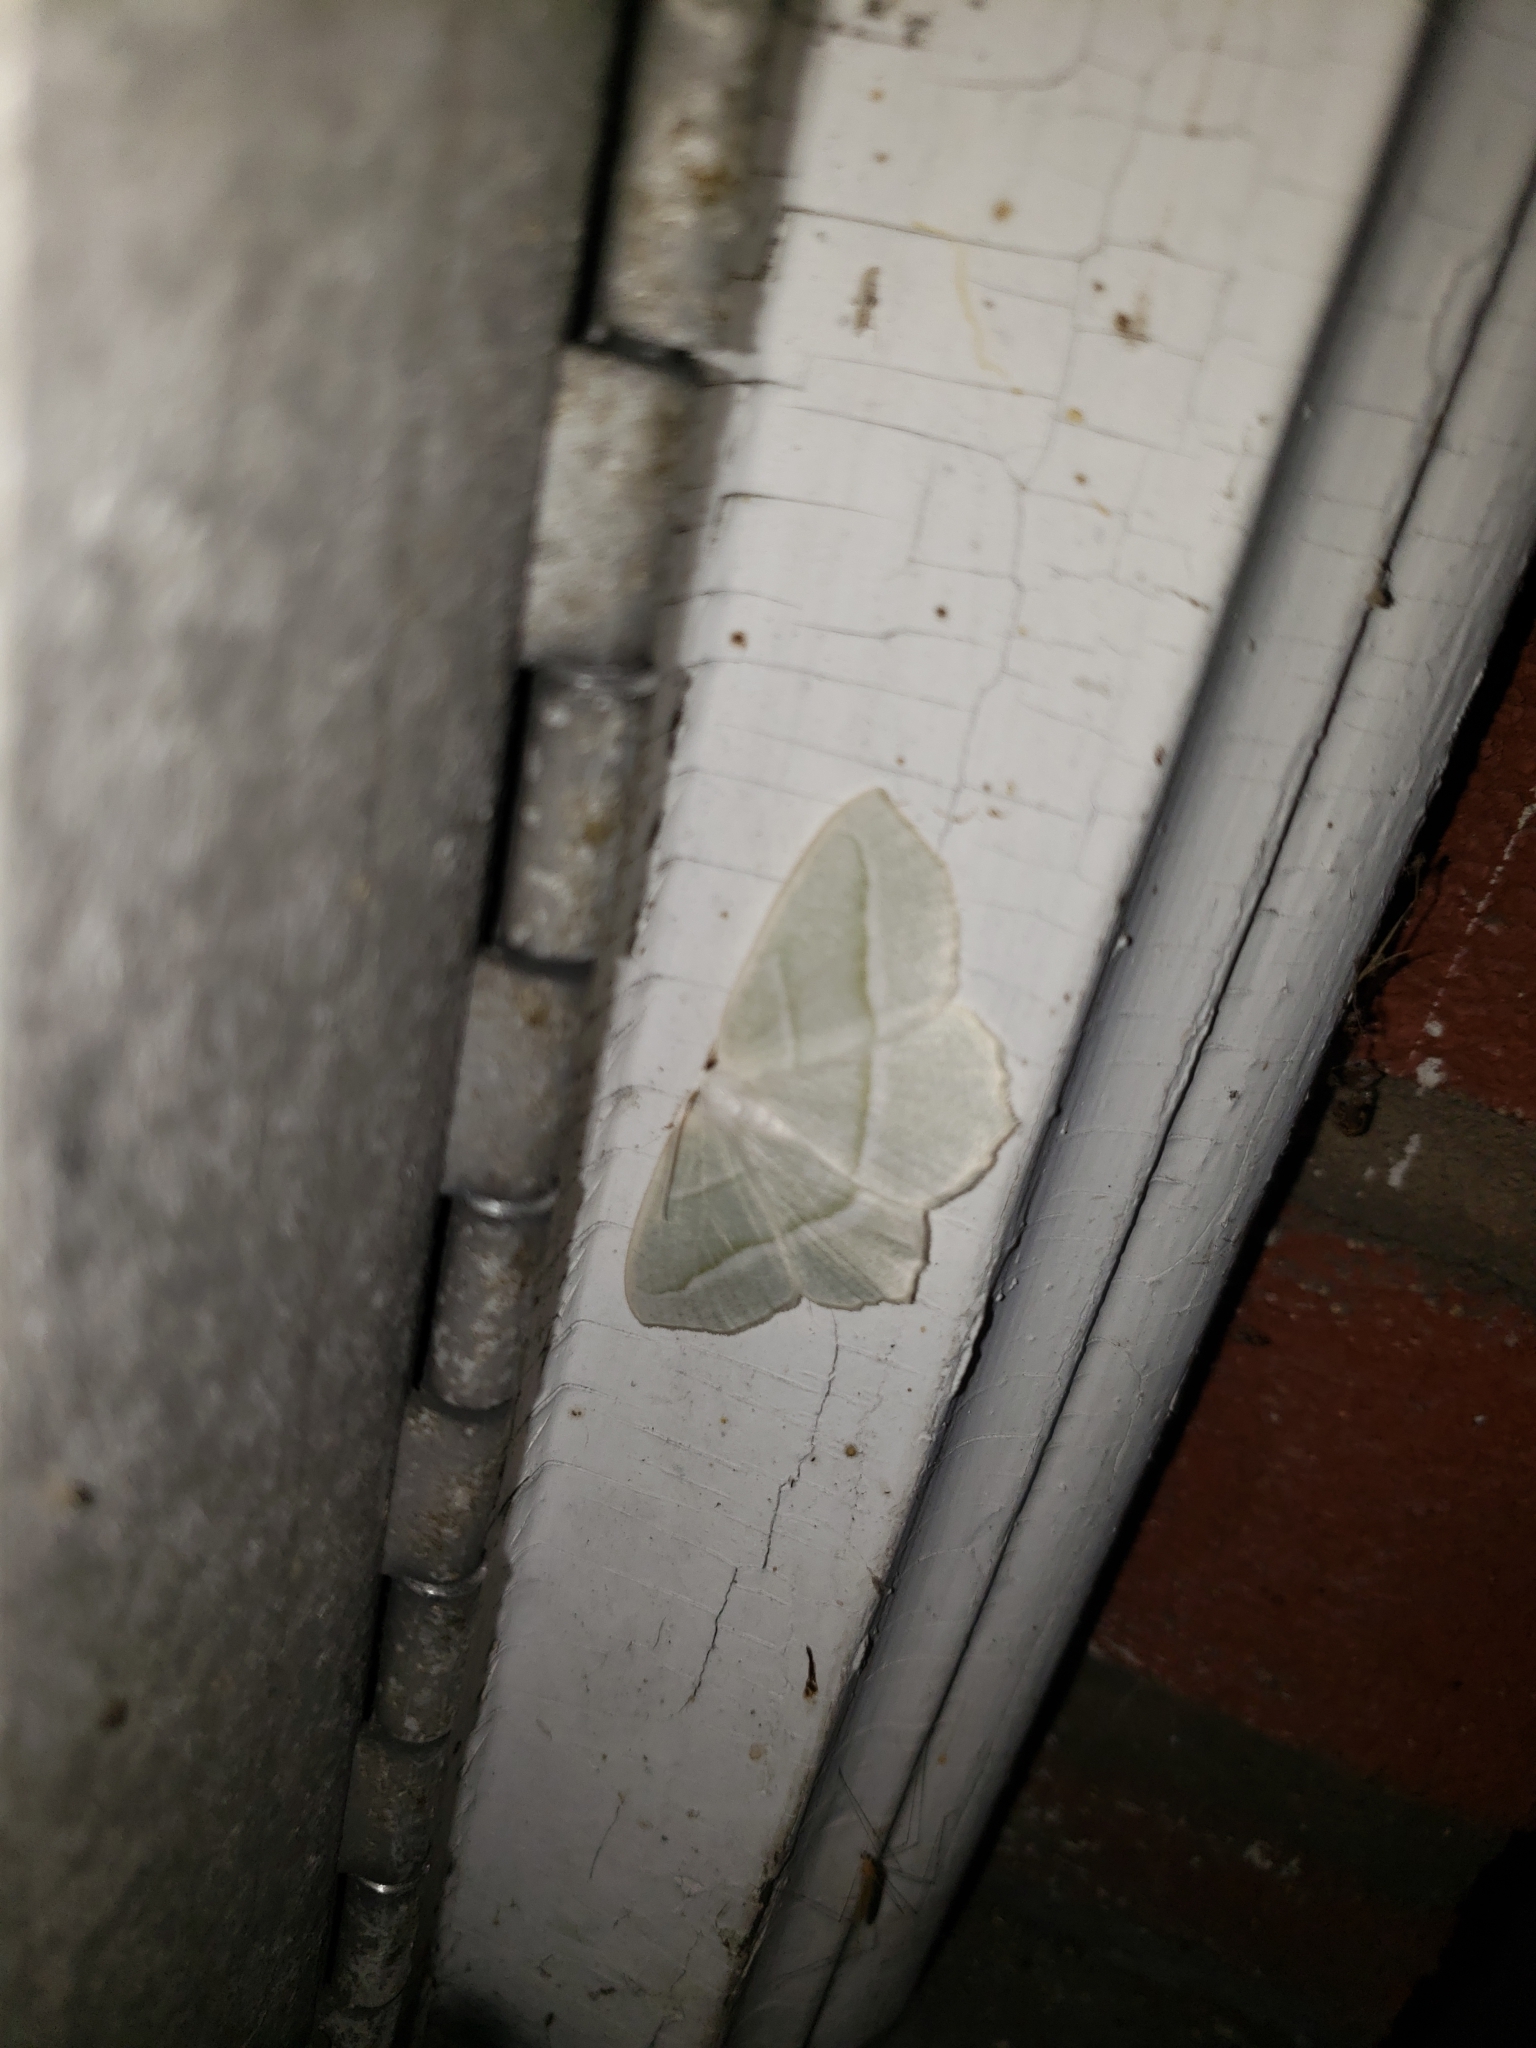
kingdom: Animalia
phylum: Arthropoda
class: Insecta
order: Lepidoptera
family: Geometridae
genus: Campaea
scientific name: Campaea perlata
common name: Fringed looper
